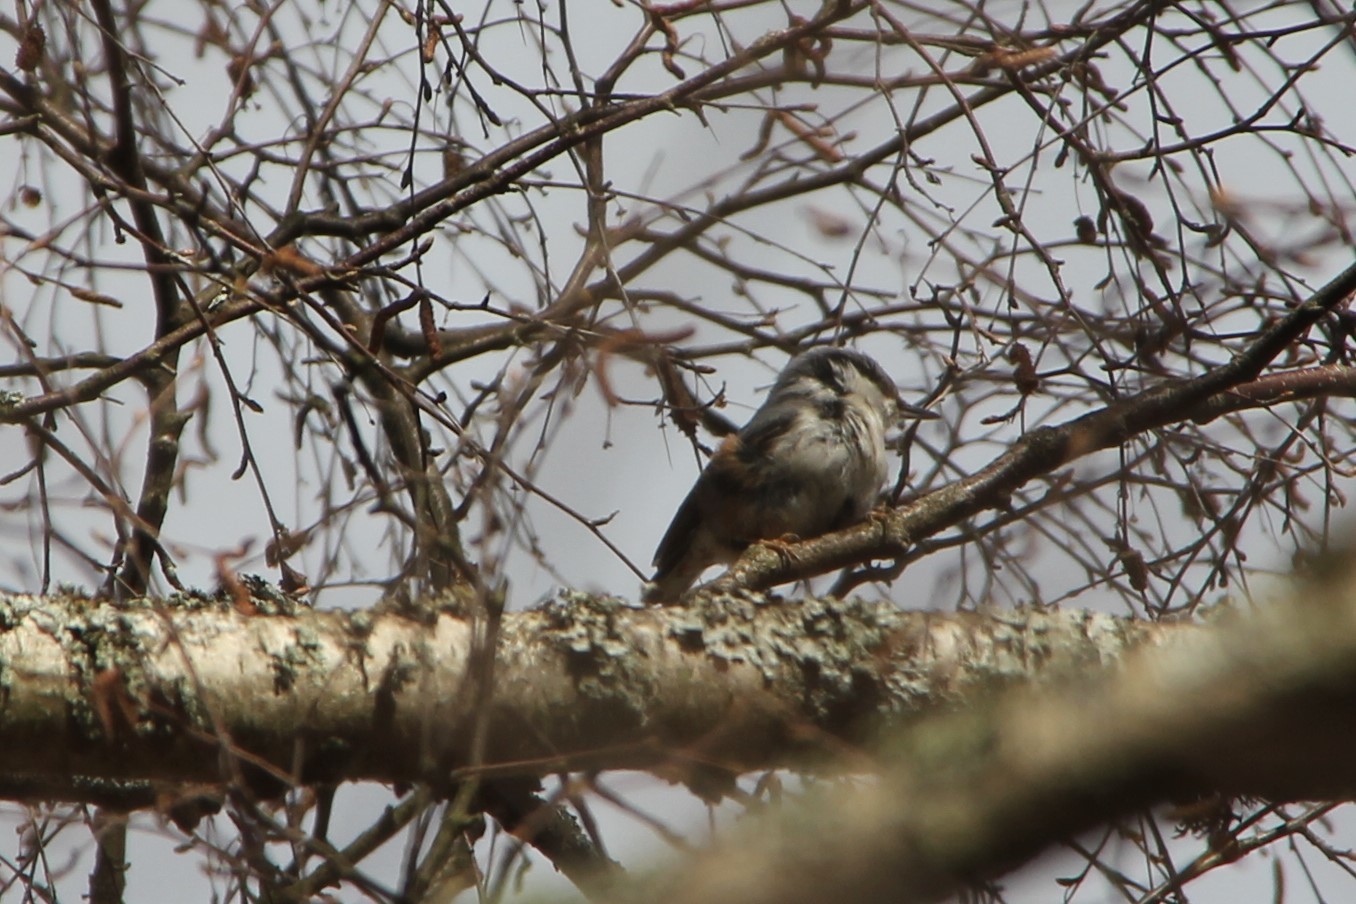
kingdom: Animalia
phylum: Chordata
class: Aves
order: Passeriformes
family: Sittidae
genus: Sitta
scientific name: Sitta europaea
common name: Eurasian nuthatch
